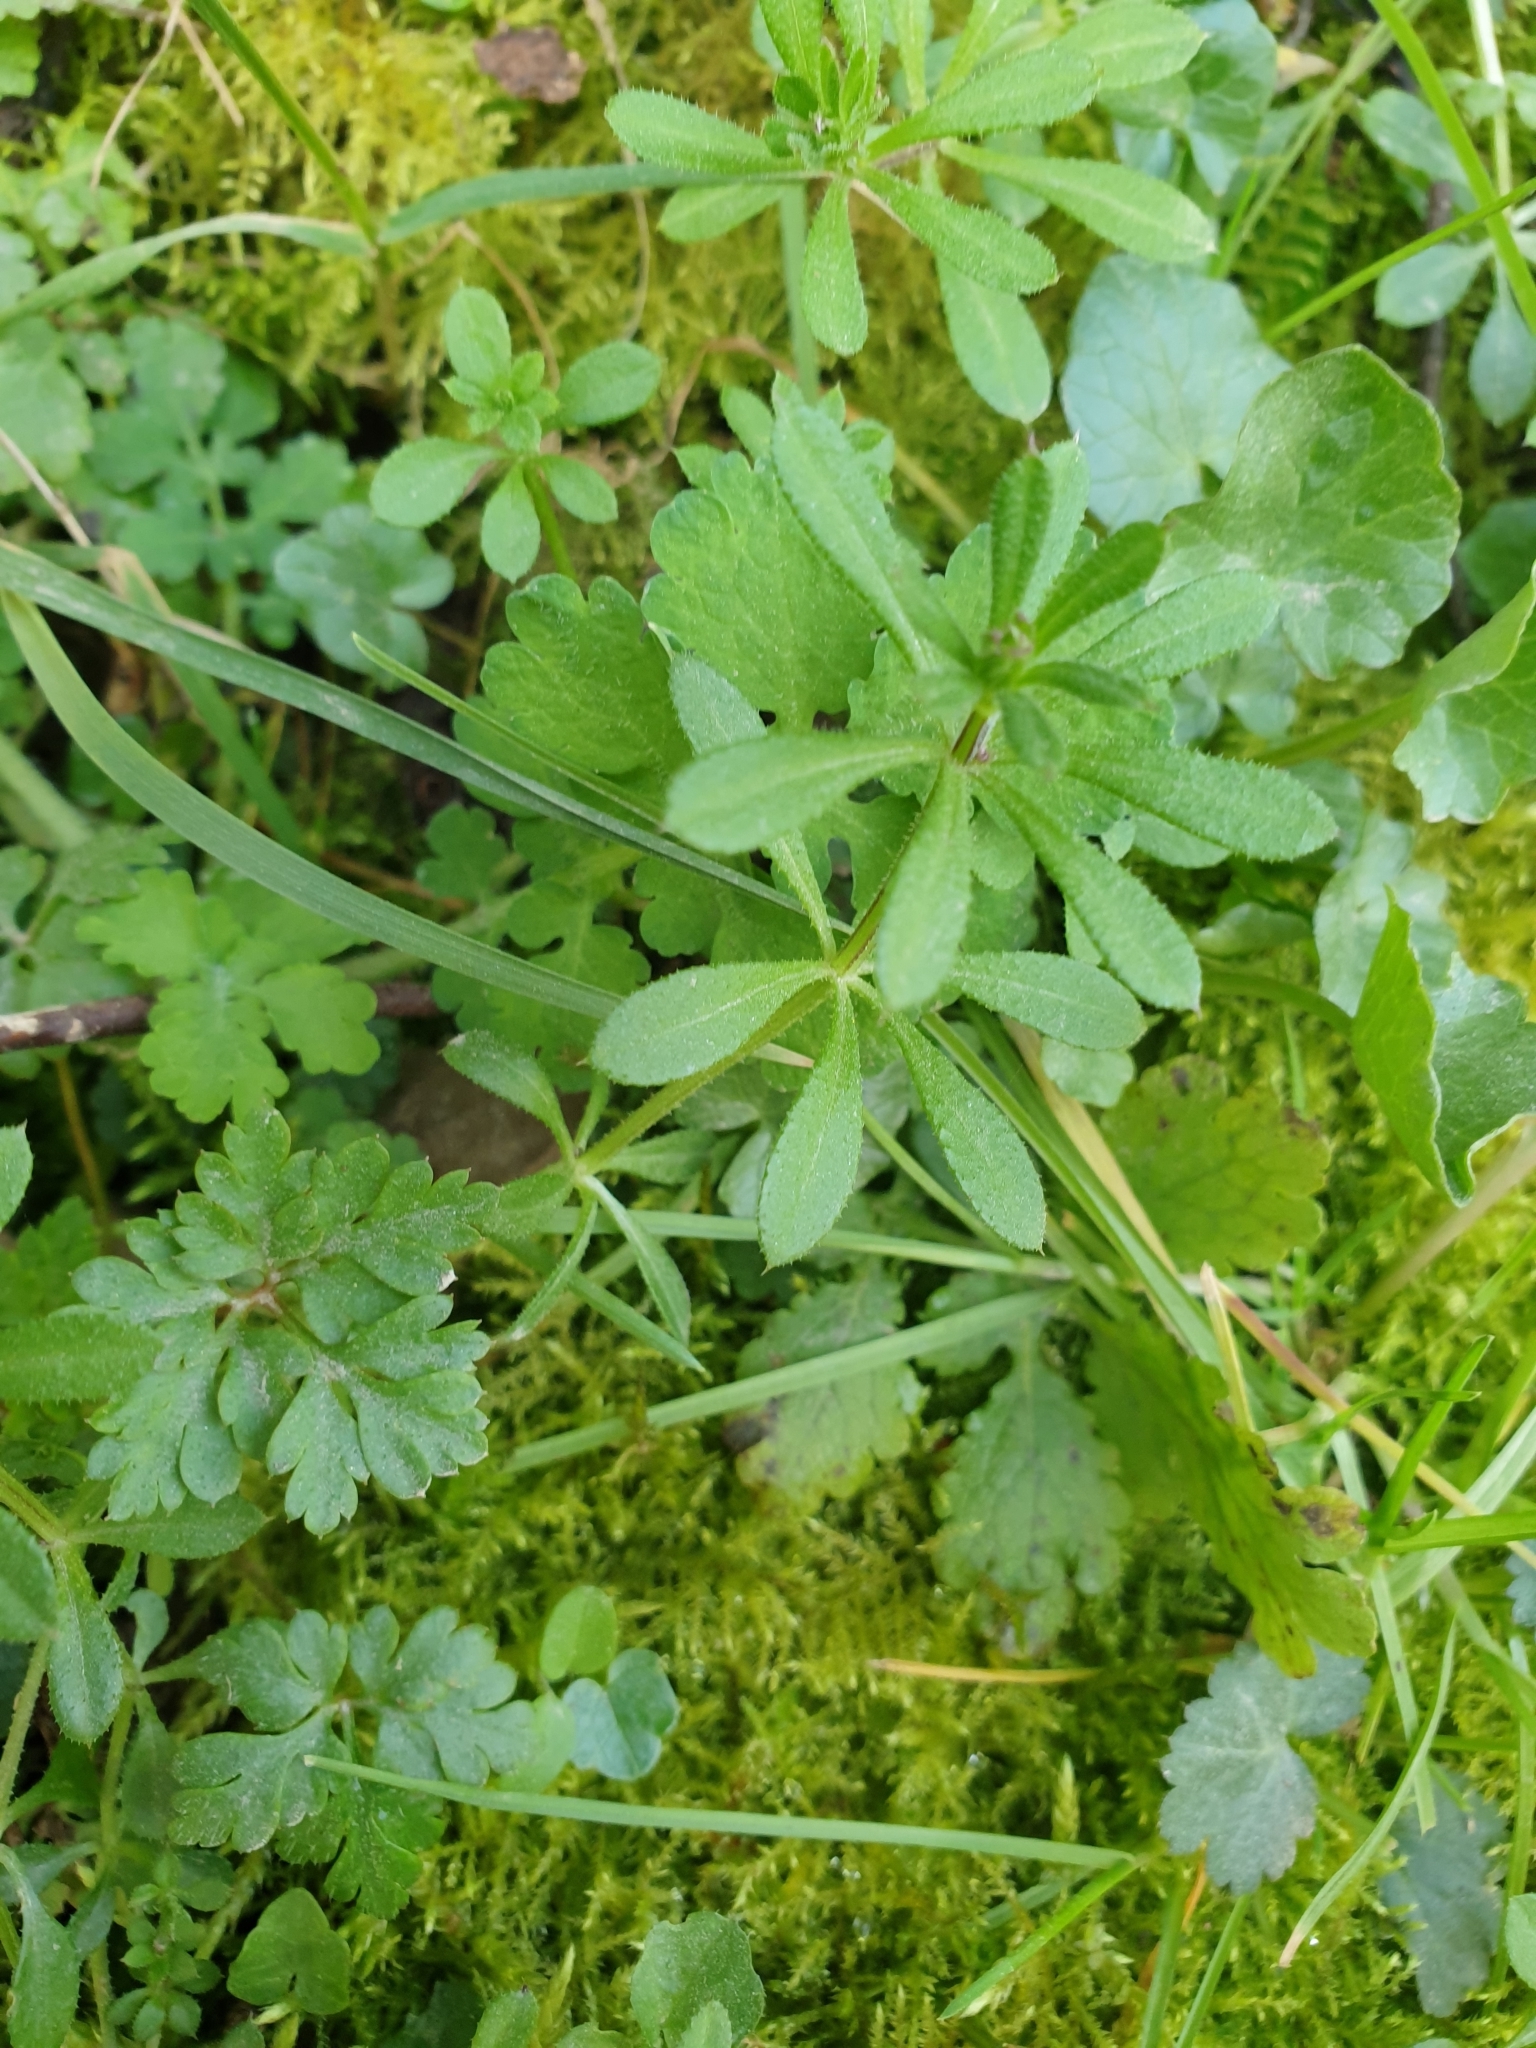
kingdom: Plantae
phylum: Tracheophyta
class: Magnoliopsida
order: Gentianales
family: Rubiaceae
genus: Galium
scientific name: Galium aparine
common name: Cleavers
